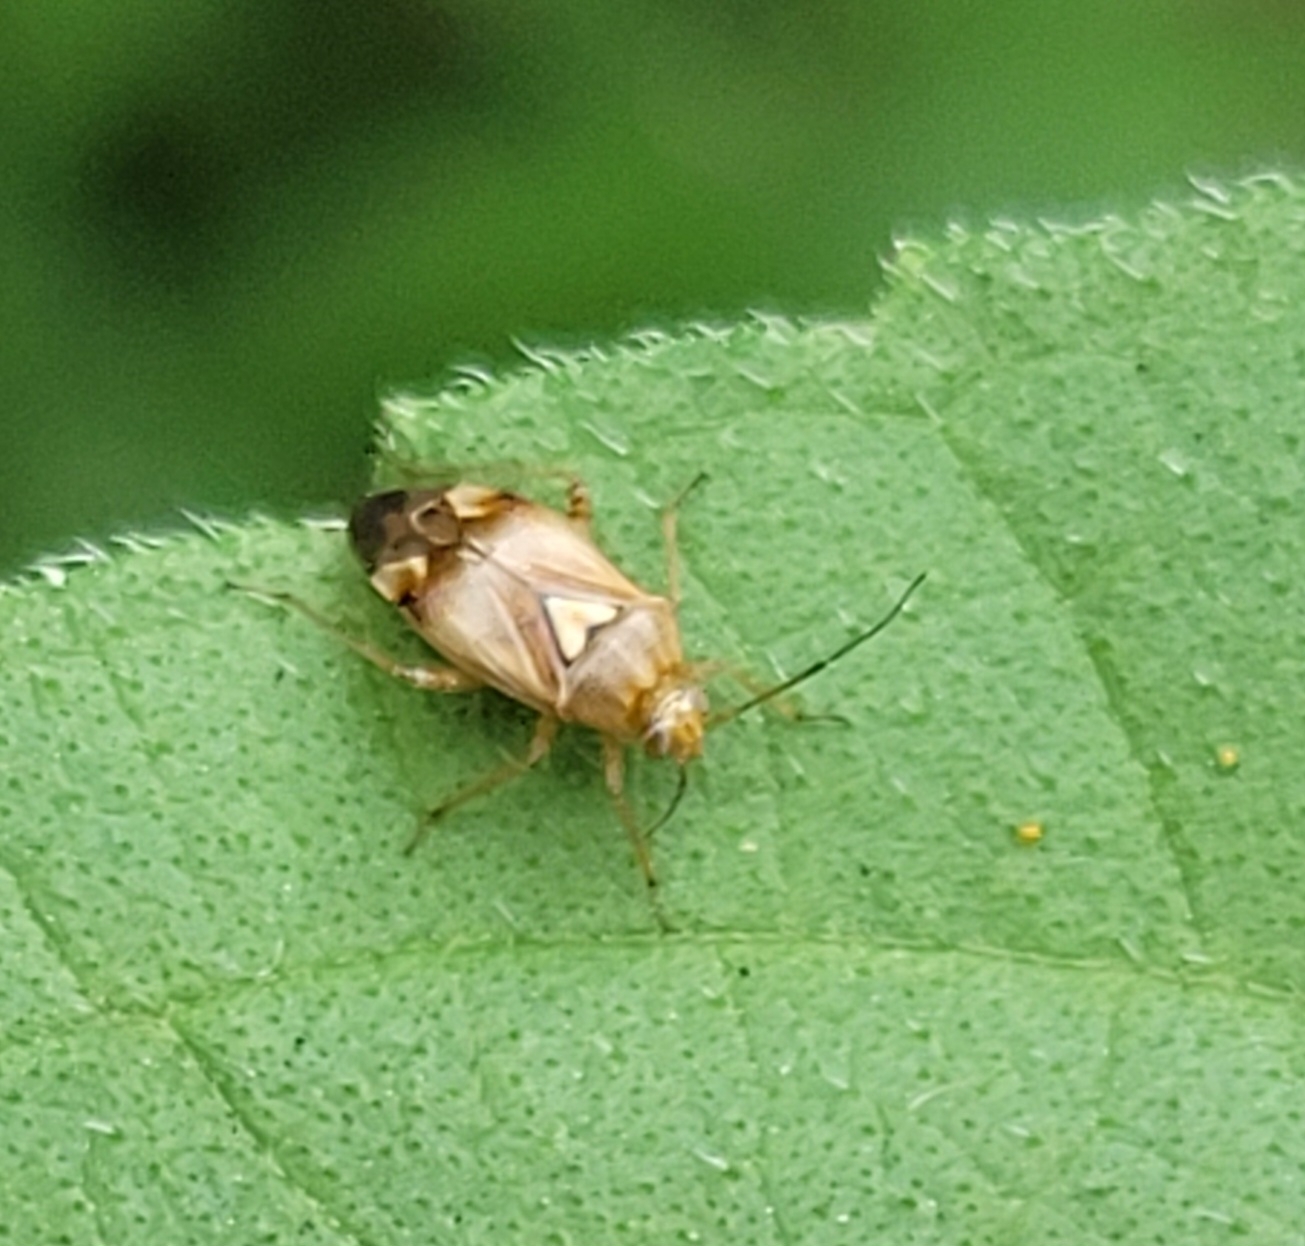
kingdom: Animalia
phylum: Arthropoda
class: Insecta
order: Hemiptera
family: Miridae
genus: Lygus
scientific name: Lygus pratensis
